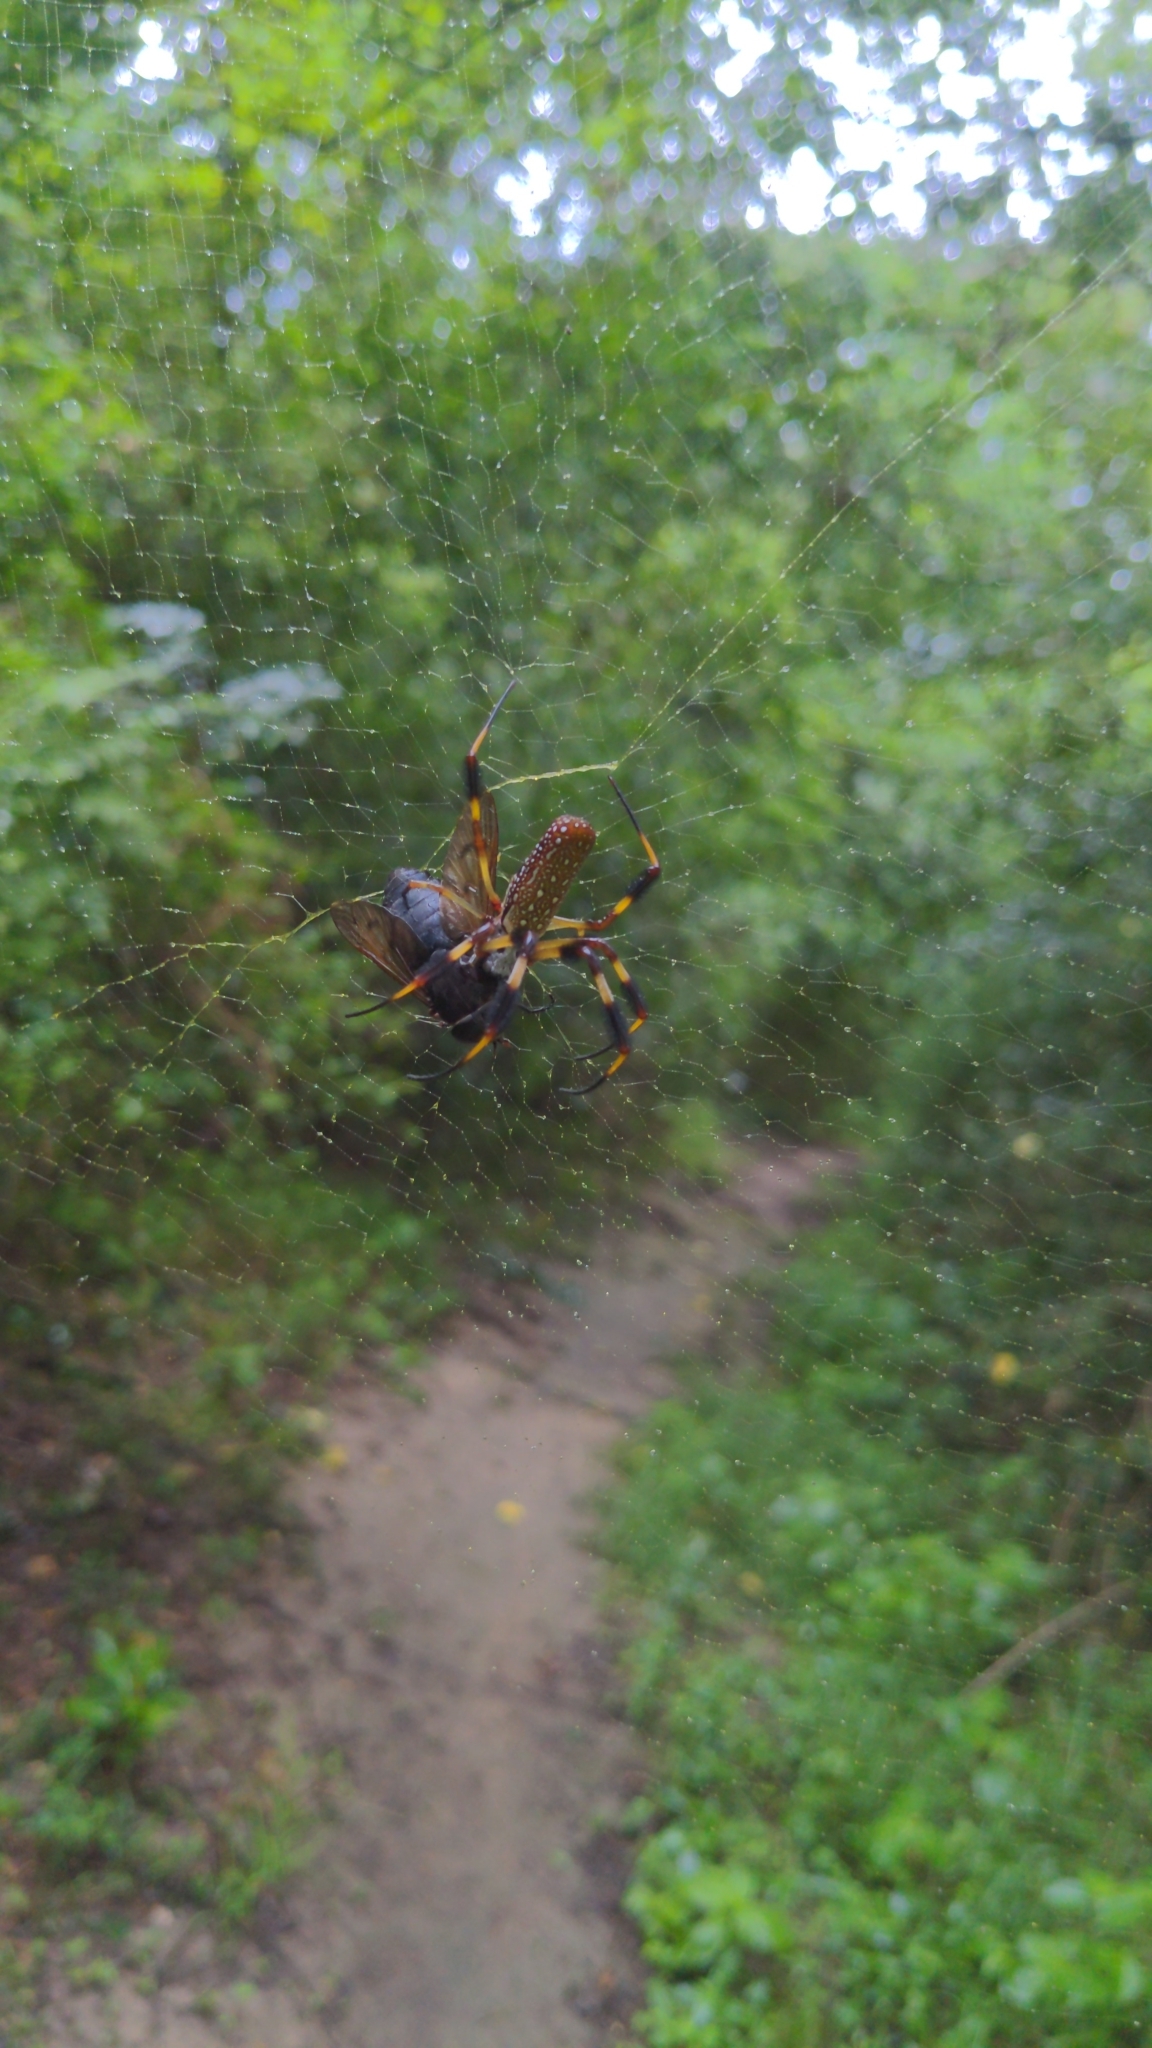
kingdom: Animalia
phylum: Arthropoda
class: Arachnida
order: Araneae
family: Araneidae
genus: Trichonephila
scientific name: Trichonephila clavipes
